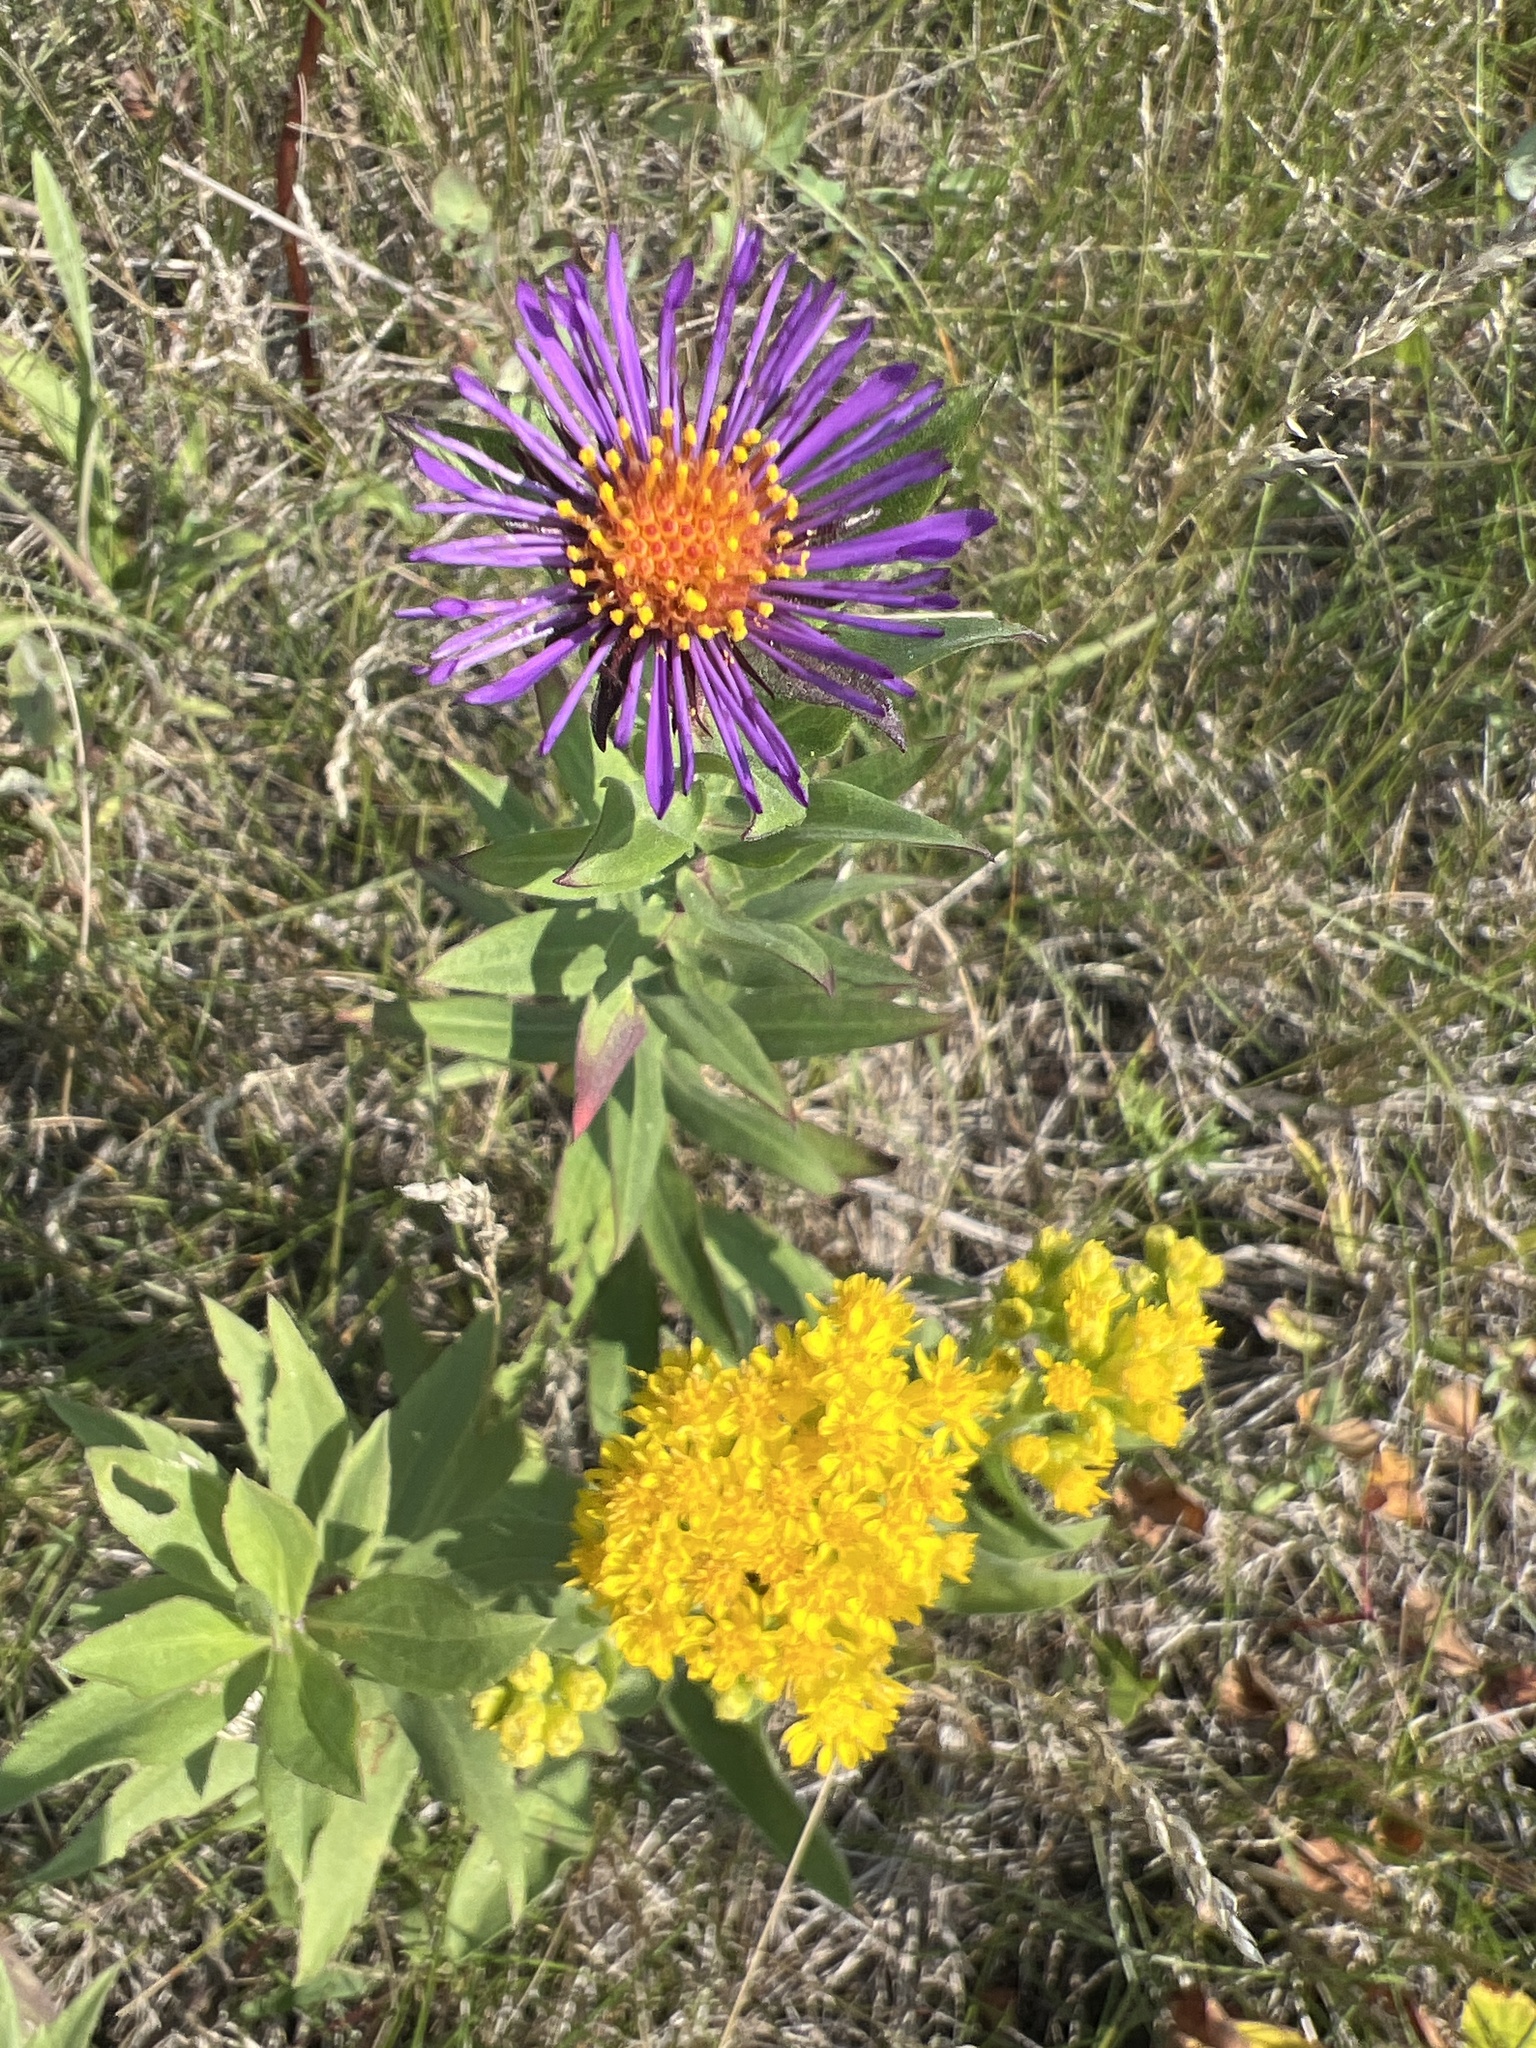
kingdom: Plantae
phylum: Tracheophyta
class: Magnoliopsida
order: Asterales
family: Asteraceae
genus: Symphyotrichum
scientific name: Symphyotrichum novae-angliae
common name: Michaelmas daisy
